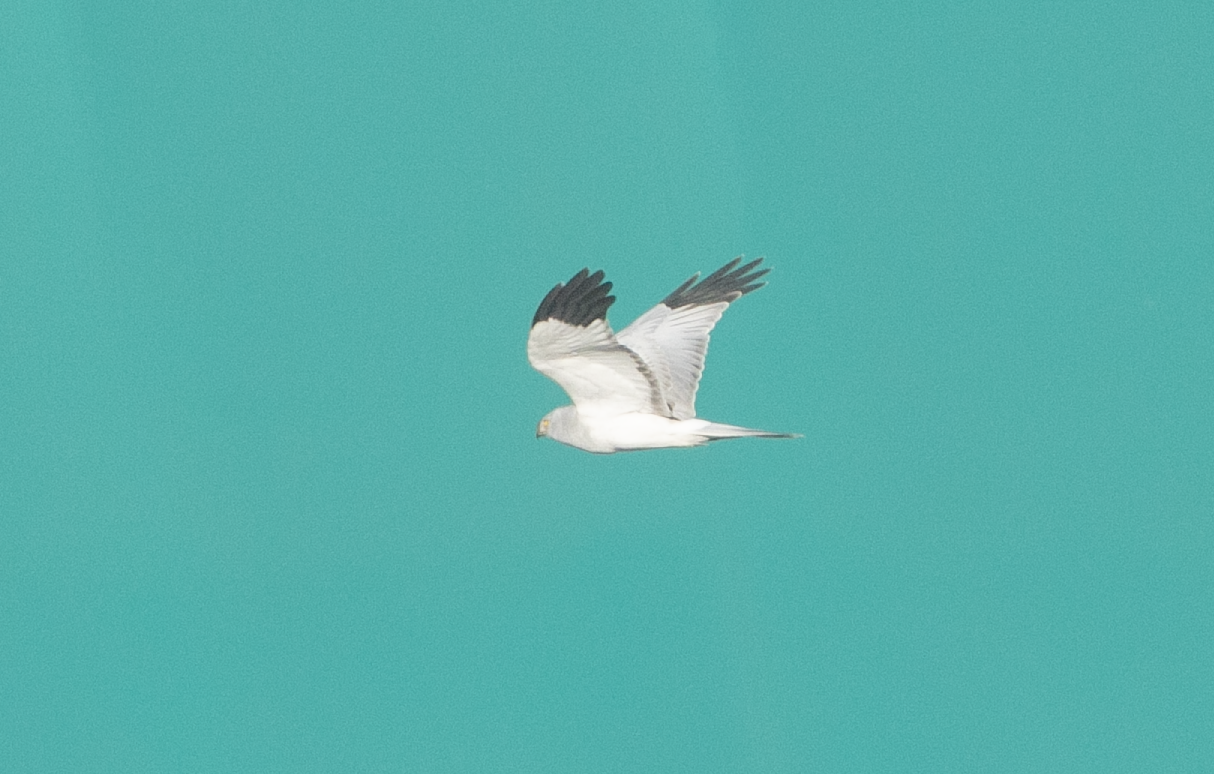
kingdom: Animalia
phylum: Chordata
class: Aves
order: Accipitriformes
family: Accipitridae
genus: Circus
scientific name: Circus cyaneus
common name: Hen harrier
